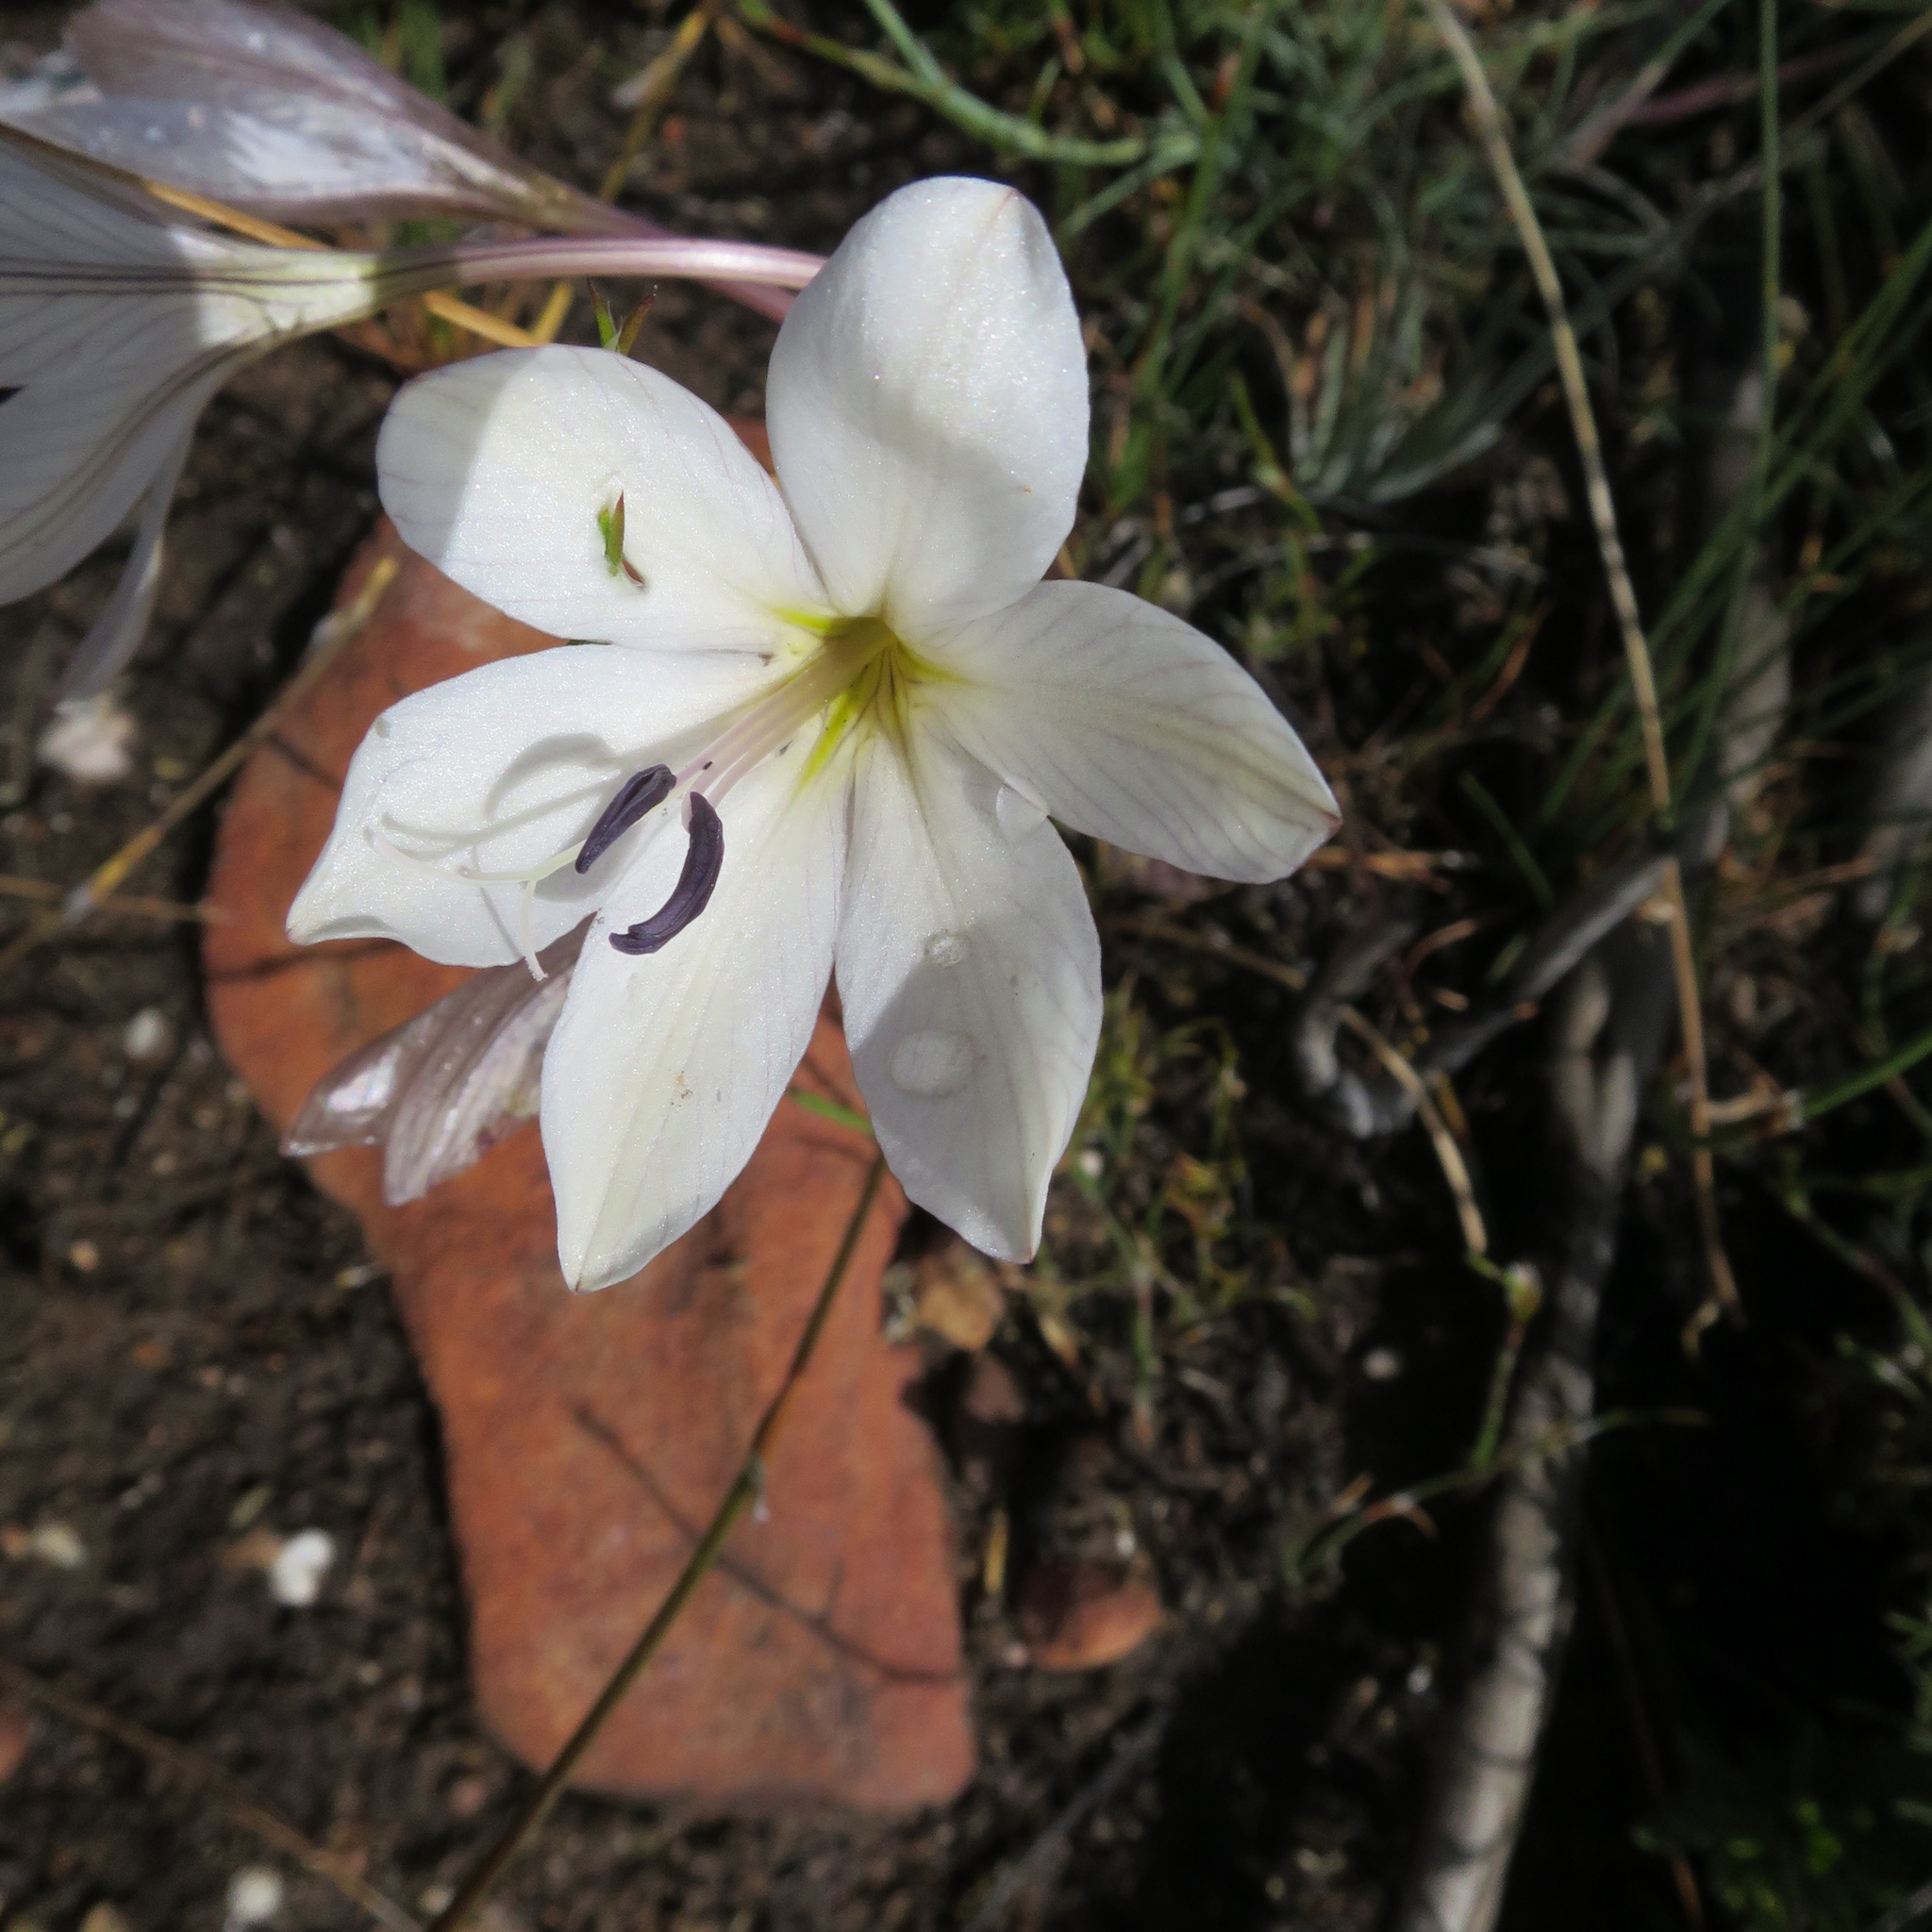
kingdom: Plantae
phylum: Tracheophyta
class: Liliopsida
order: Asparagales
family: Iridaceae
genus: Tritonia
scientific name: Tritonia bakeri
